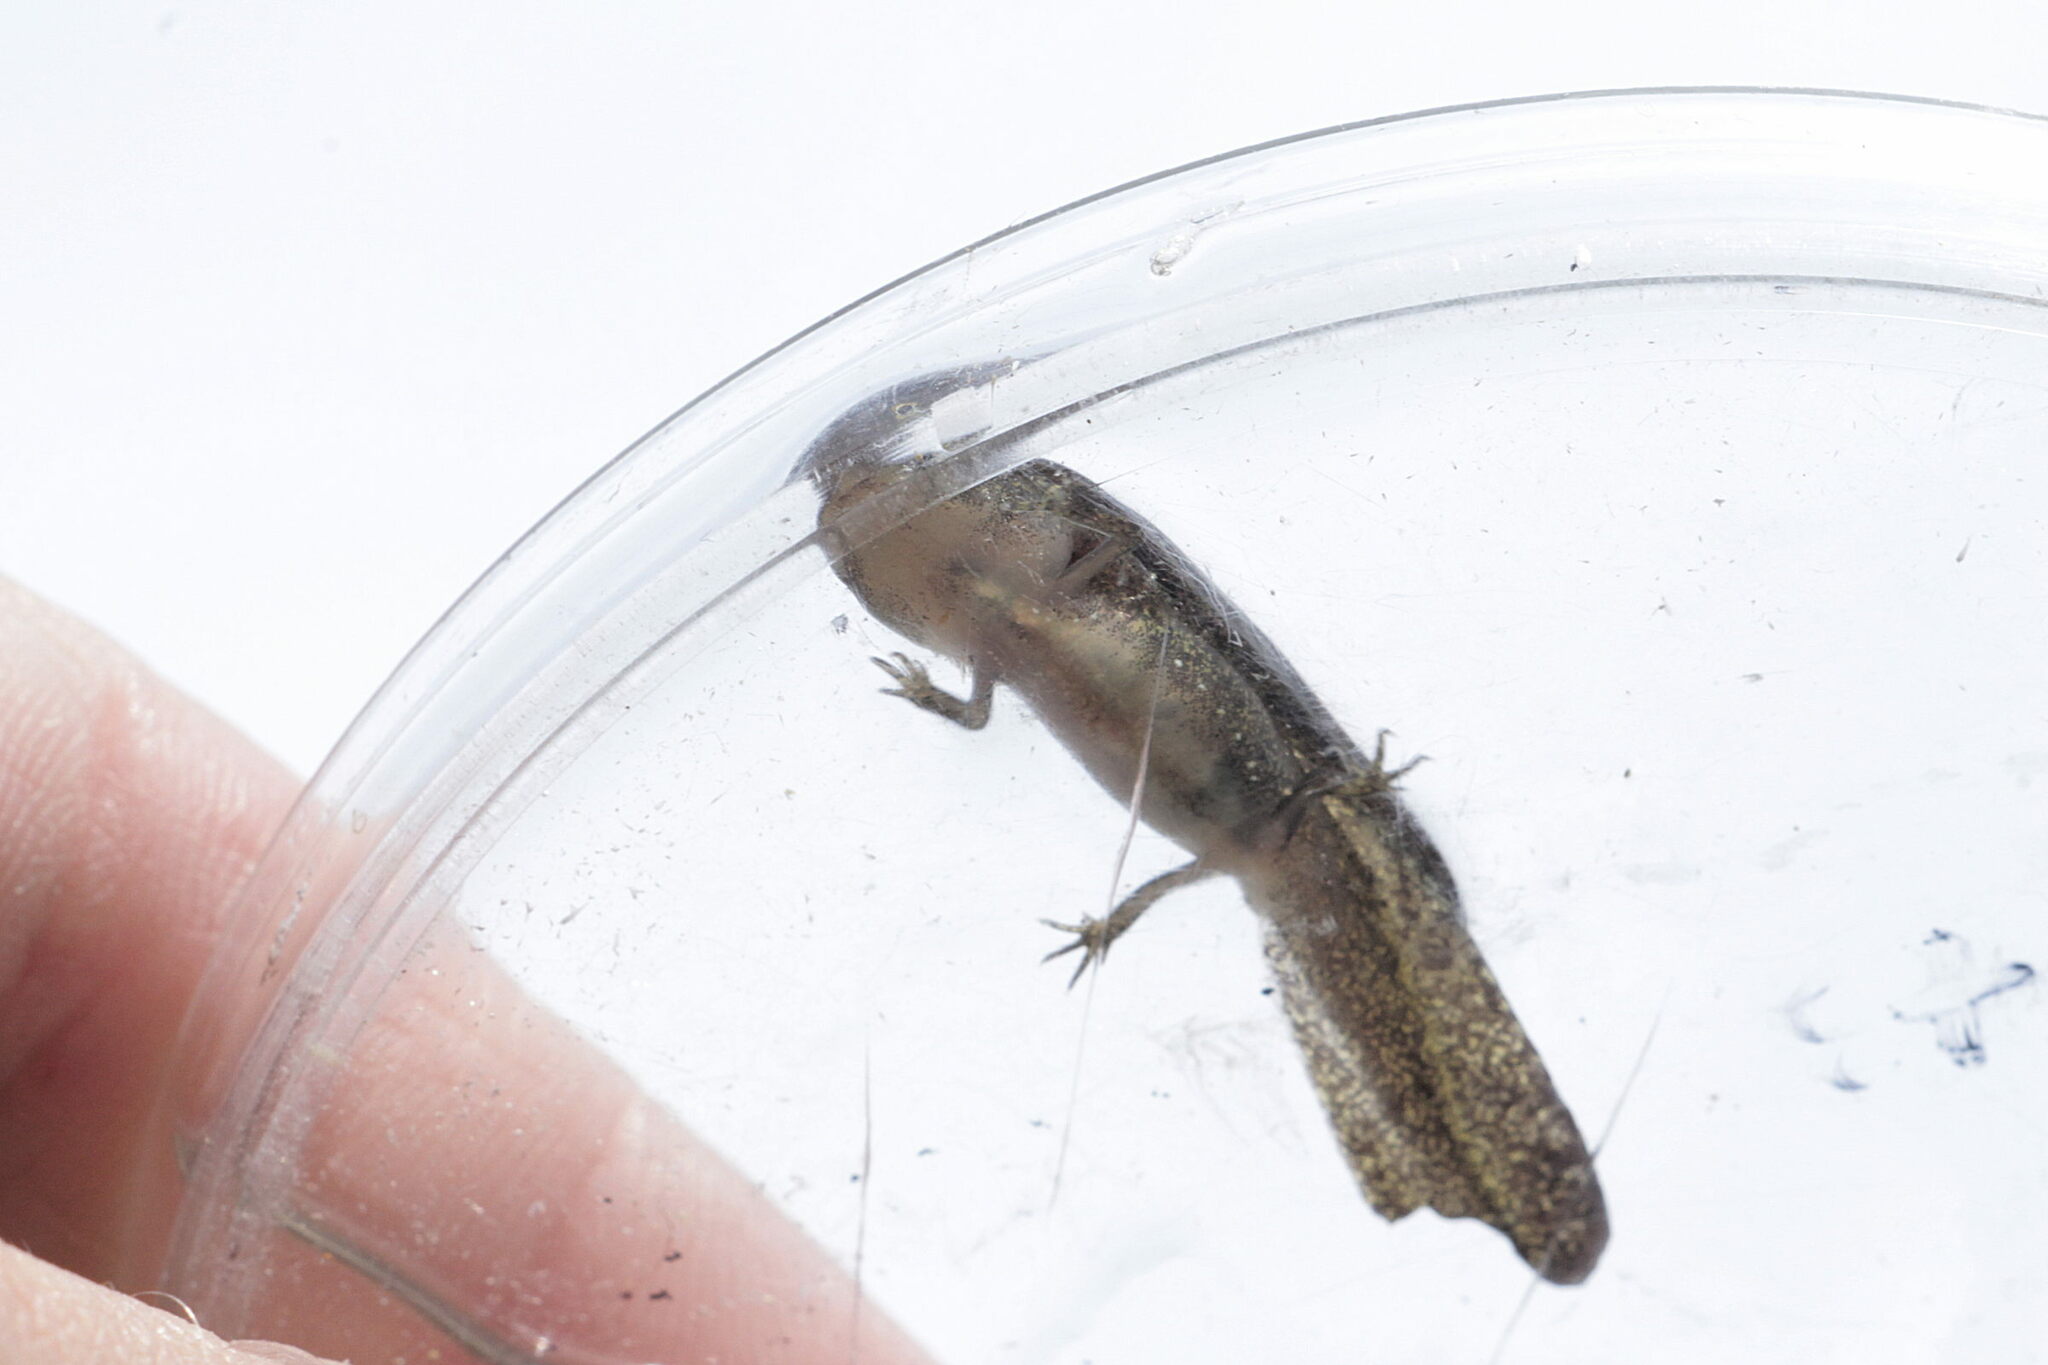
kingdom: Animalia
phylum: Chordata
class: Amphibia
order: Caudata
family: Salamandridae
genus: Ichthyosaura
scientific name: Ichthyosaura alpestris
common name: Alpine newt
